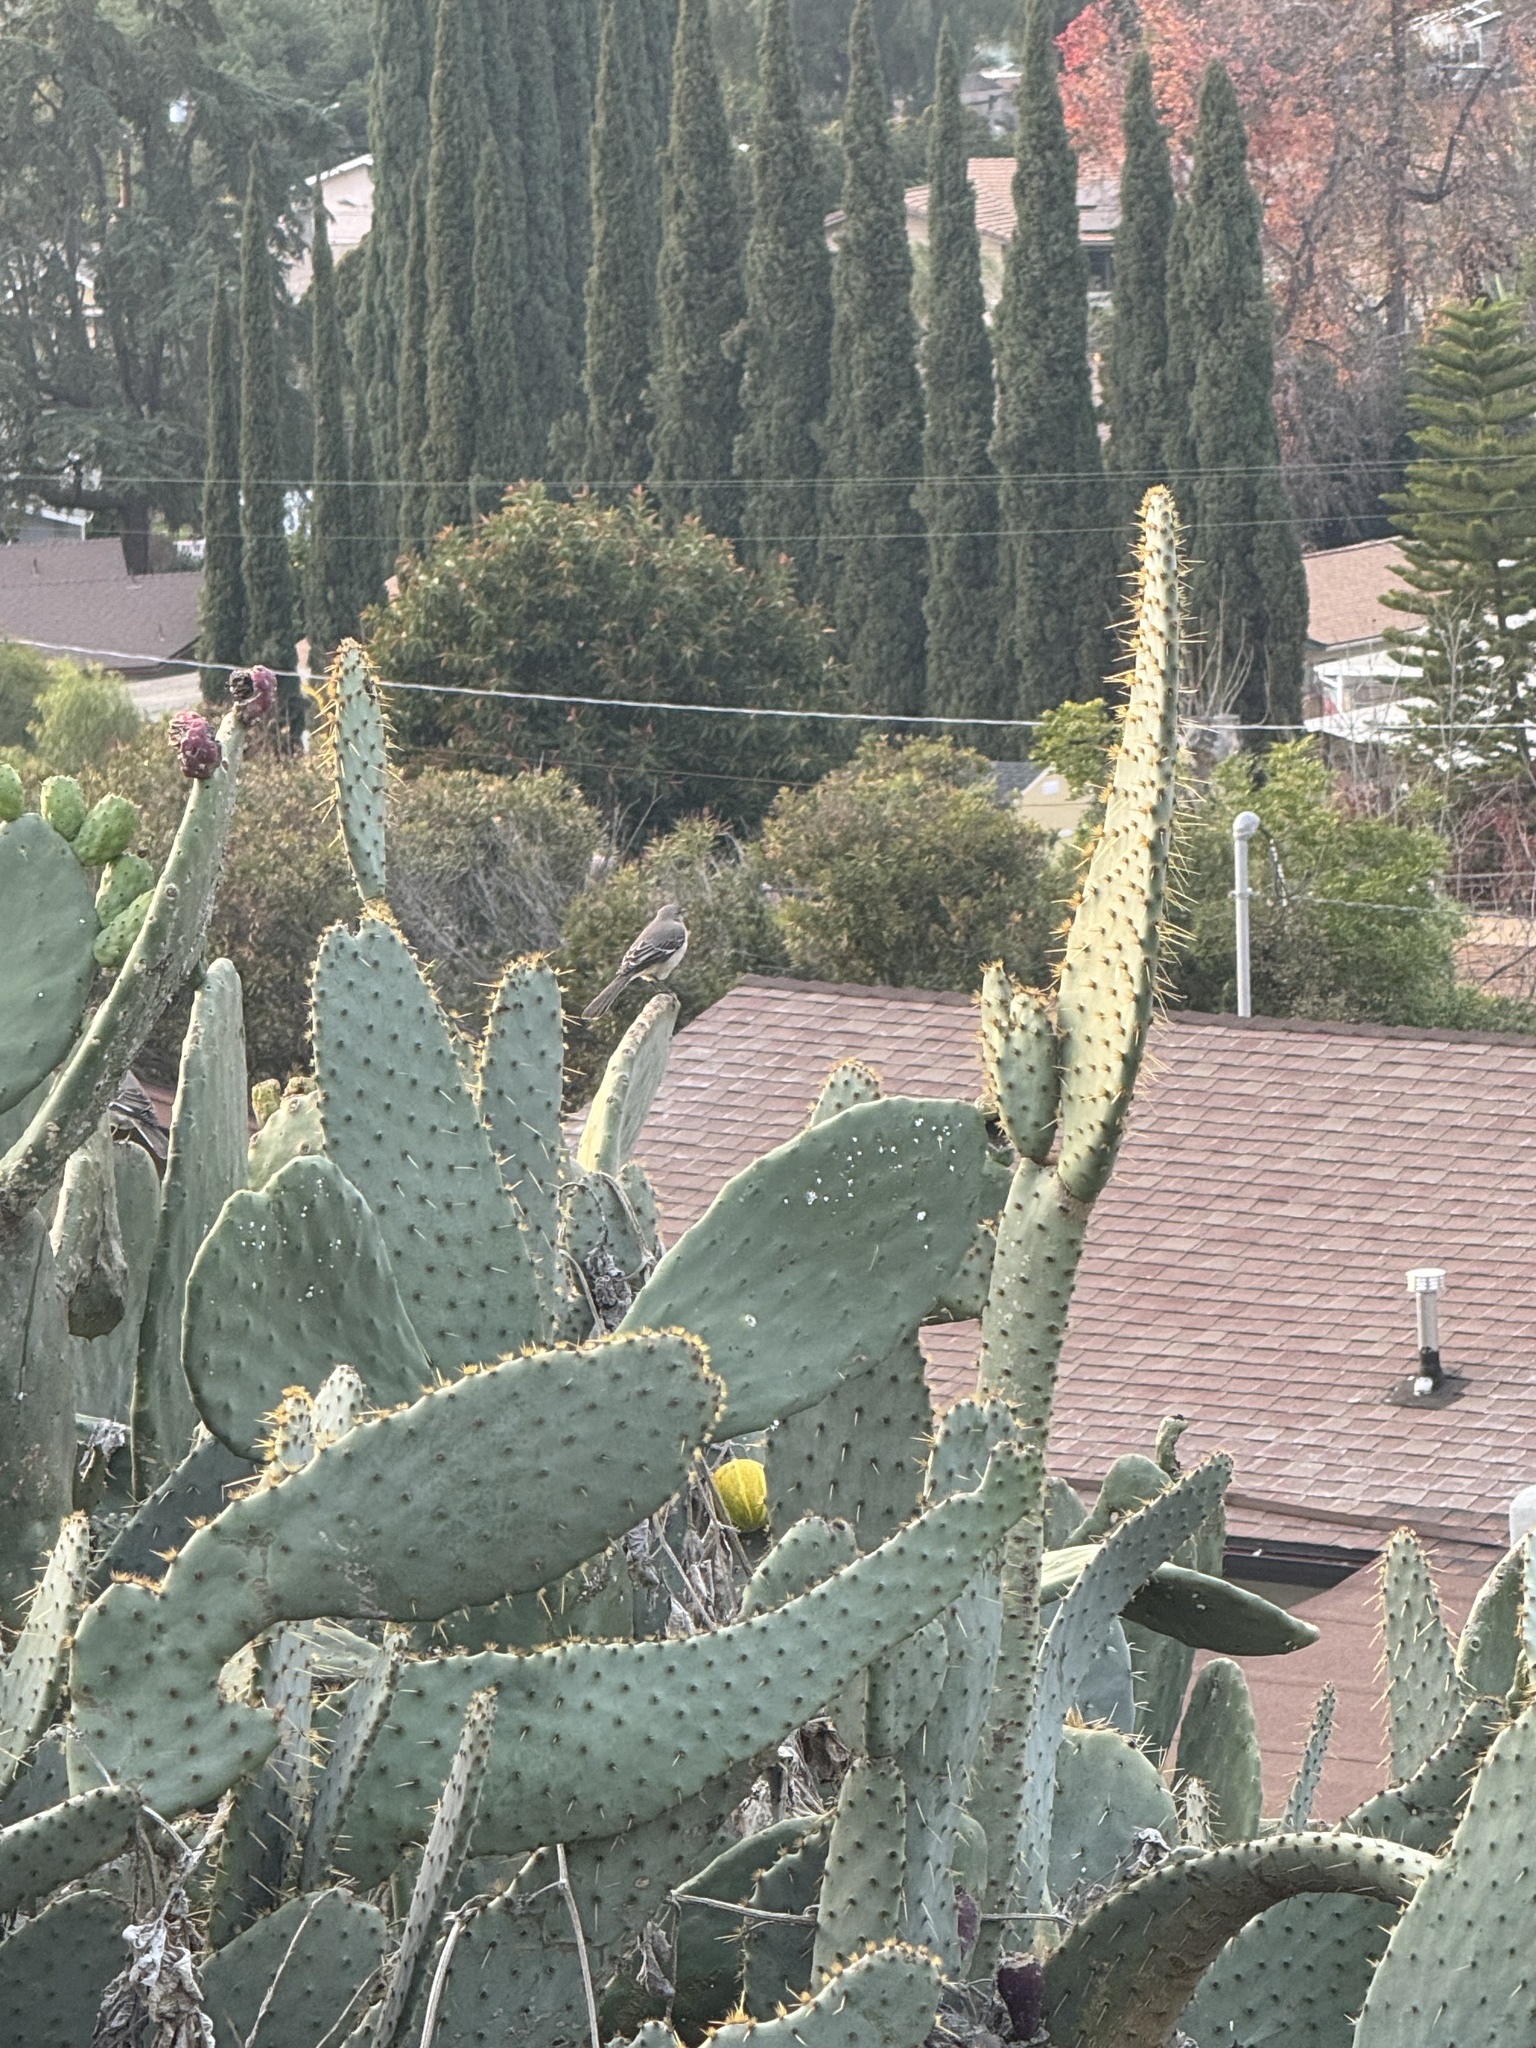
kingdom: Animalia
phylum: Chordata
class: Aves
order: Passeriformes
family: Mimidae
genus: Mimus
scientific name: Mimus polyglottos
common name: Northern mockingbird
